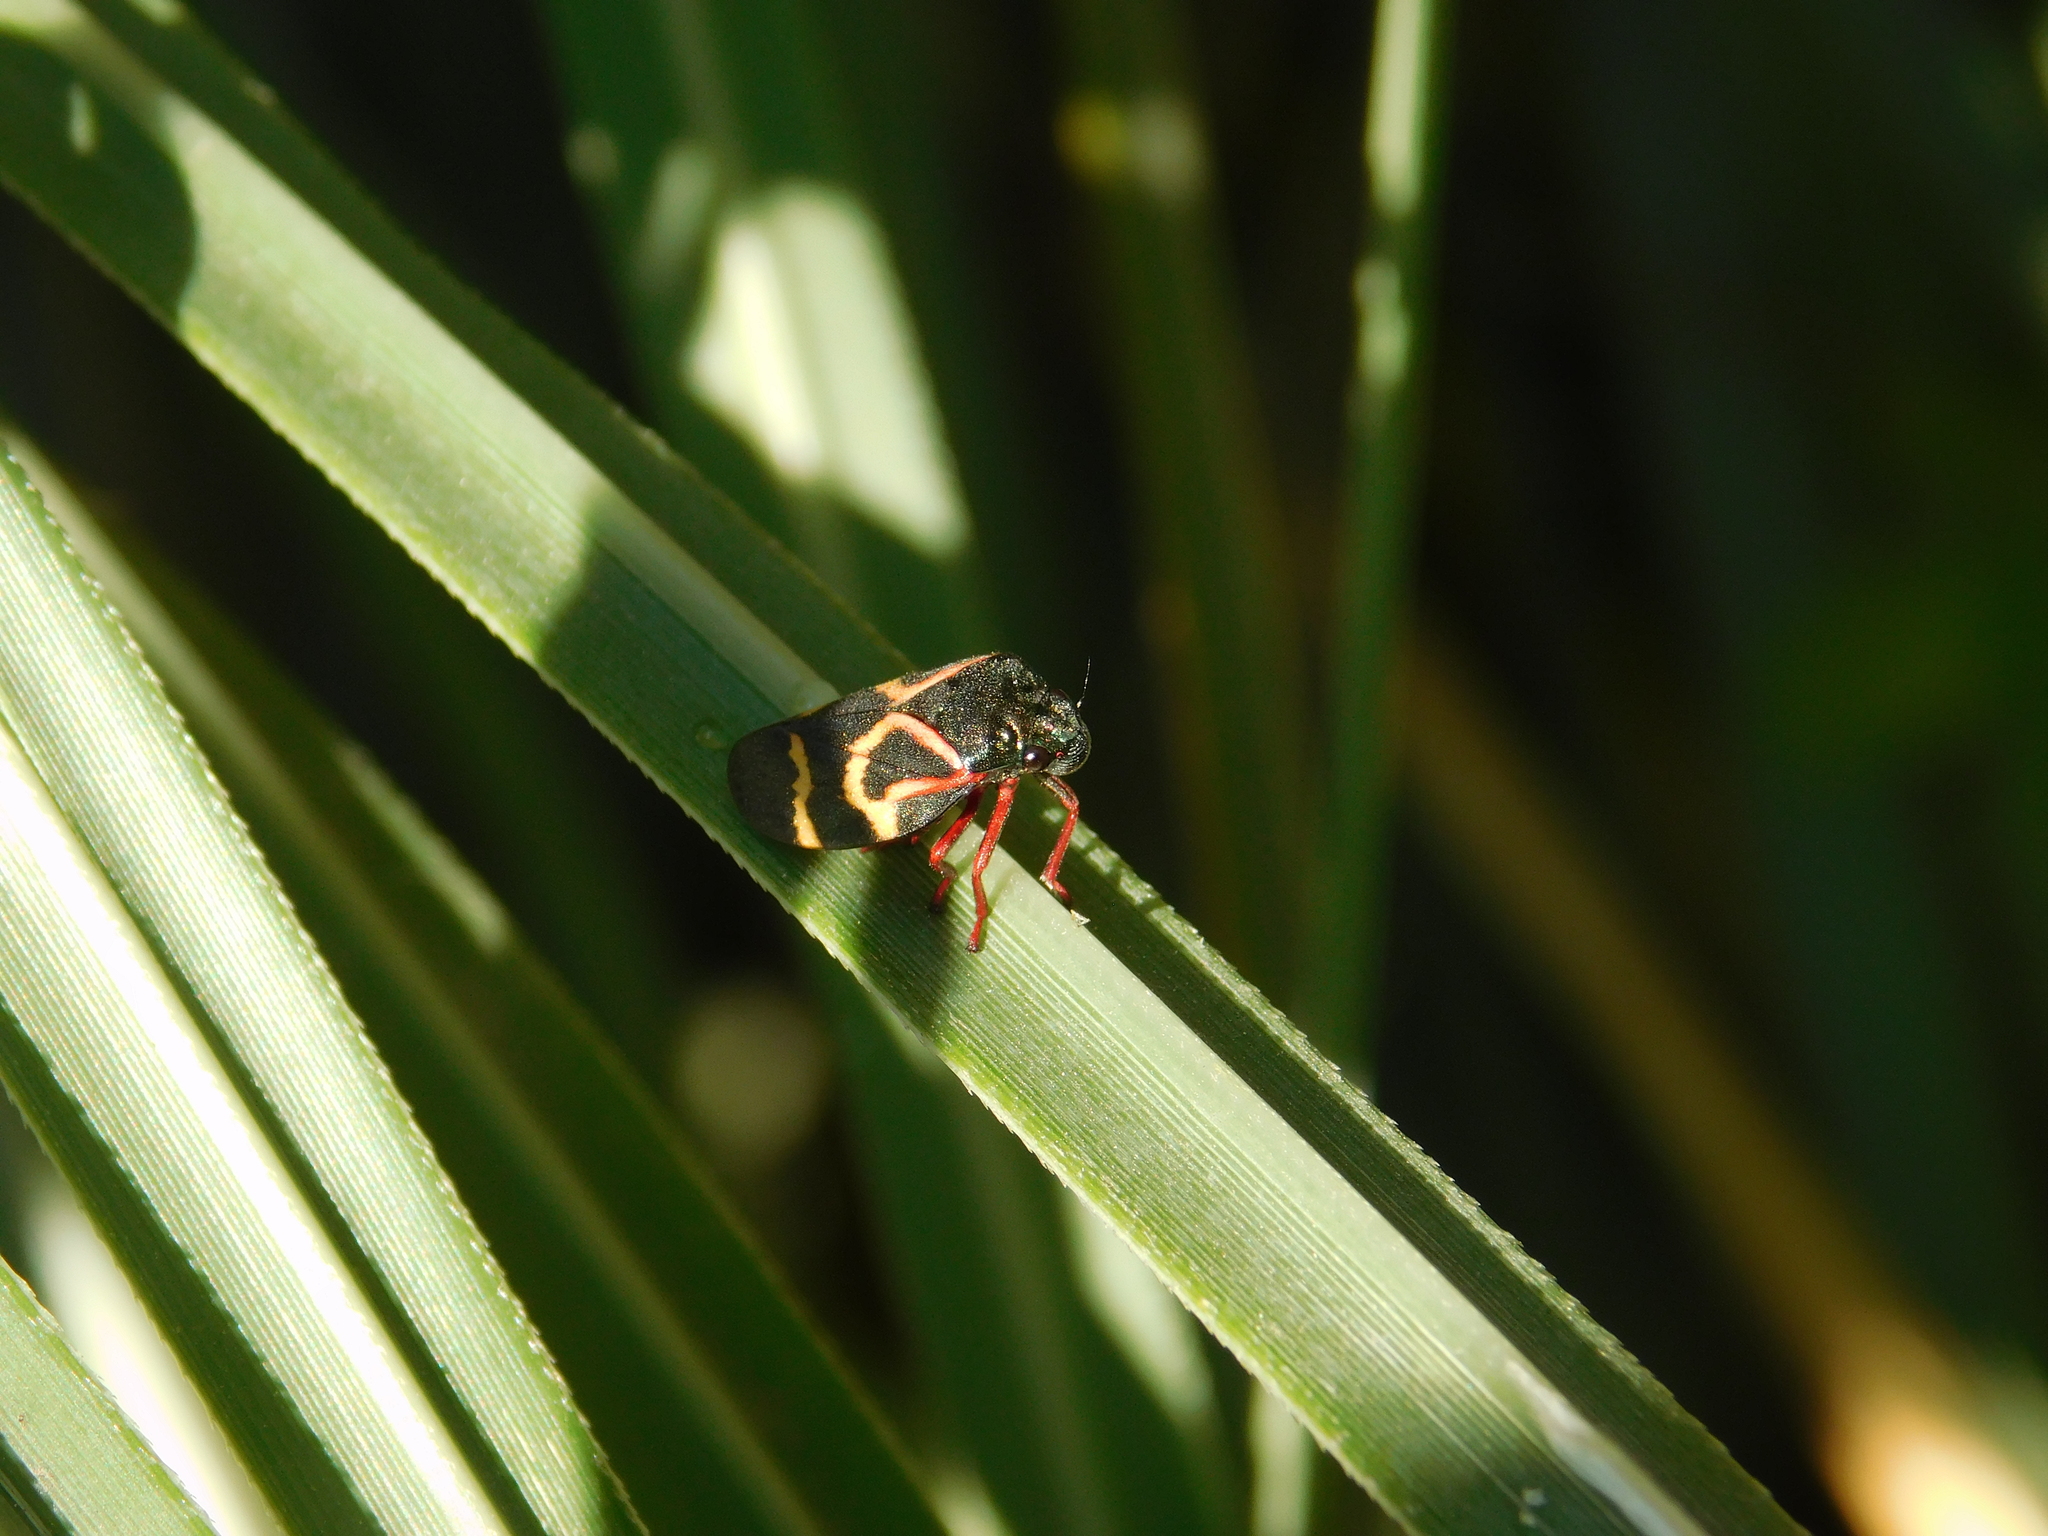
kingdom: Animalia
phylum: Arthropoda
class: Insecta
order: Hemiptera
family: Cercopidae
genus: Deois
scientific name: Deois flexuosa
